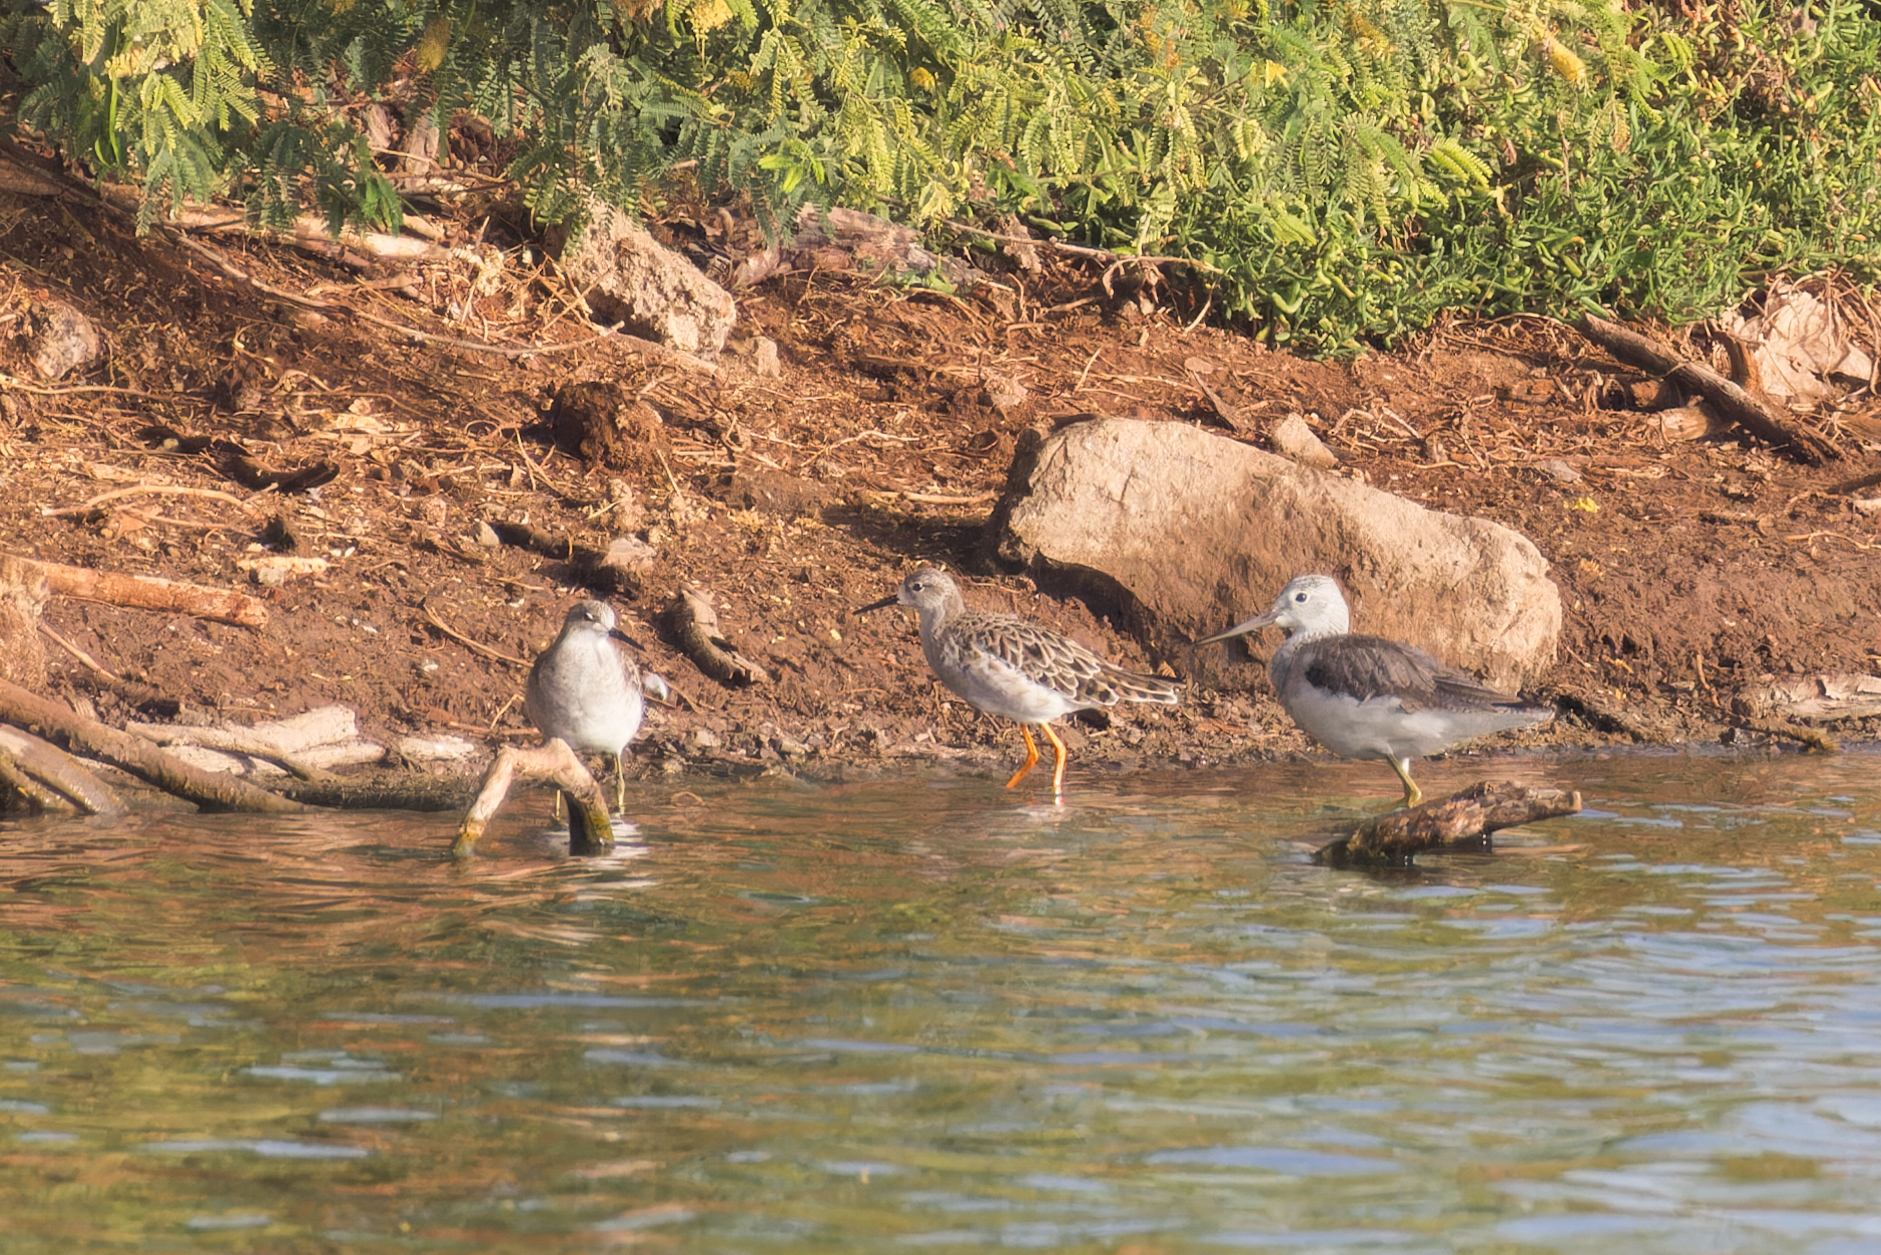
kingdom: Animalia
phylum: Chordata
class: Aves
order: Charadriiformes
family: Scolopacidae
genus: Calidris
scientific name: Calidris pugnax
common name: Ruff
